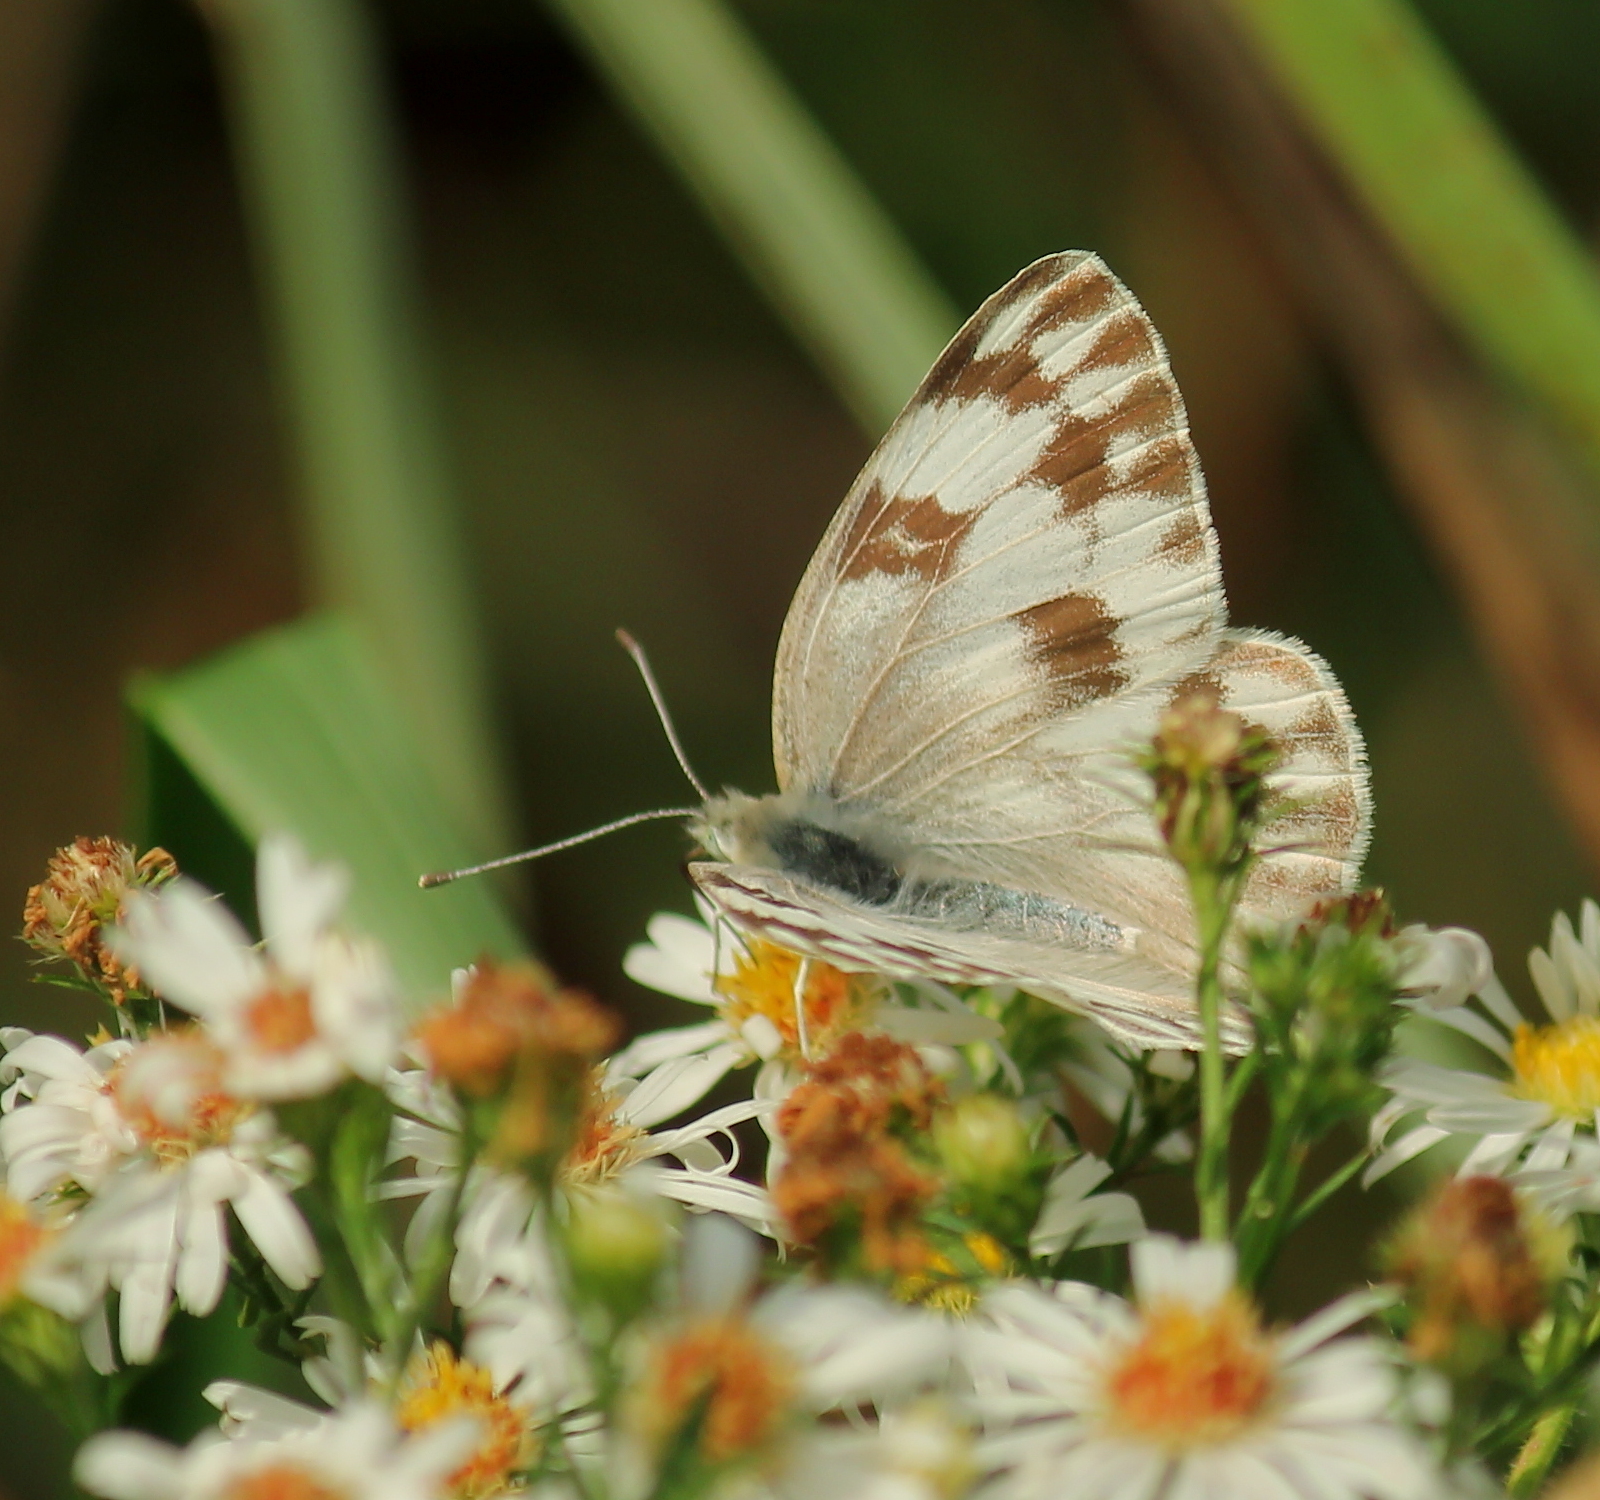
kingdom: Animalia
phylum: Arthropoda
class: Insecta
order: Lepidoptera
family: Pieridae
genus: Pontia
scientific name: Pontia protodice
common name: Checkered white
